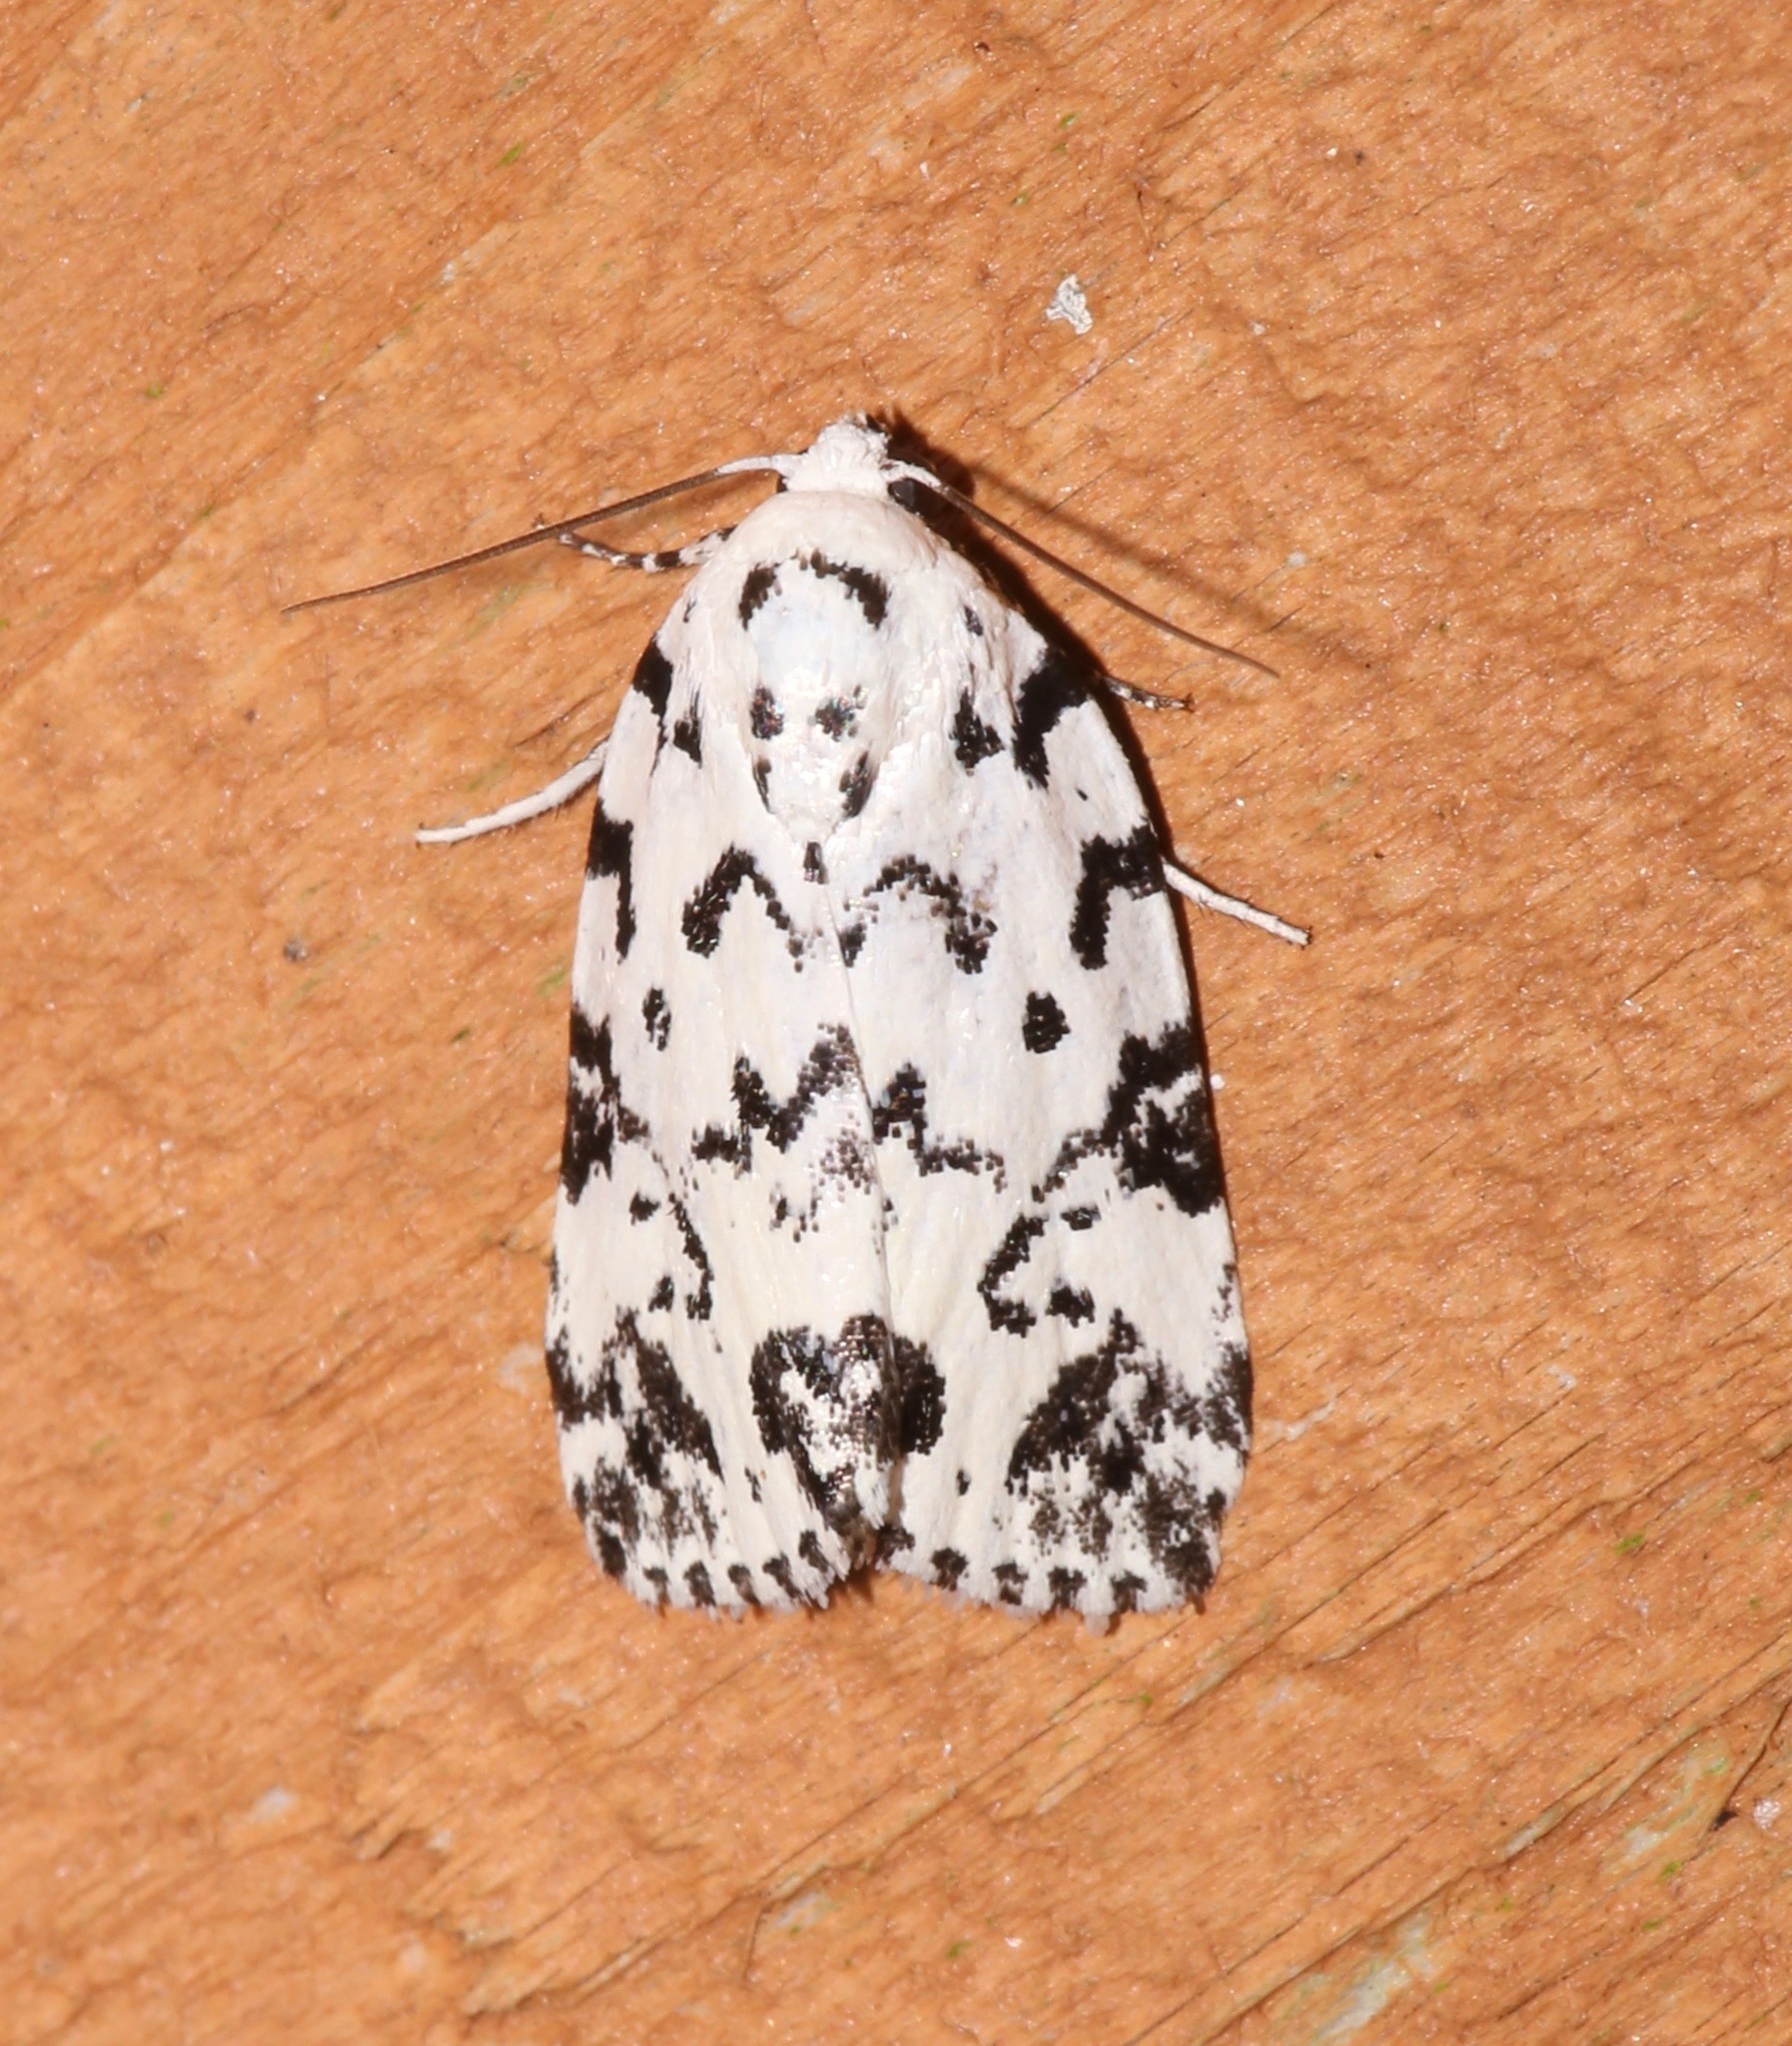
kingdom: Animalia
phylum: Arthropoda
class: Insecta
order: Lepidoptera
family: Noctuidae
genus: Polygrammate
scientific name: Polygrammate hebraeicum
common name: Hebrew moth
